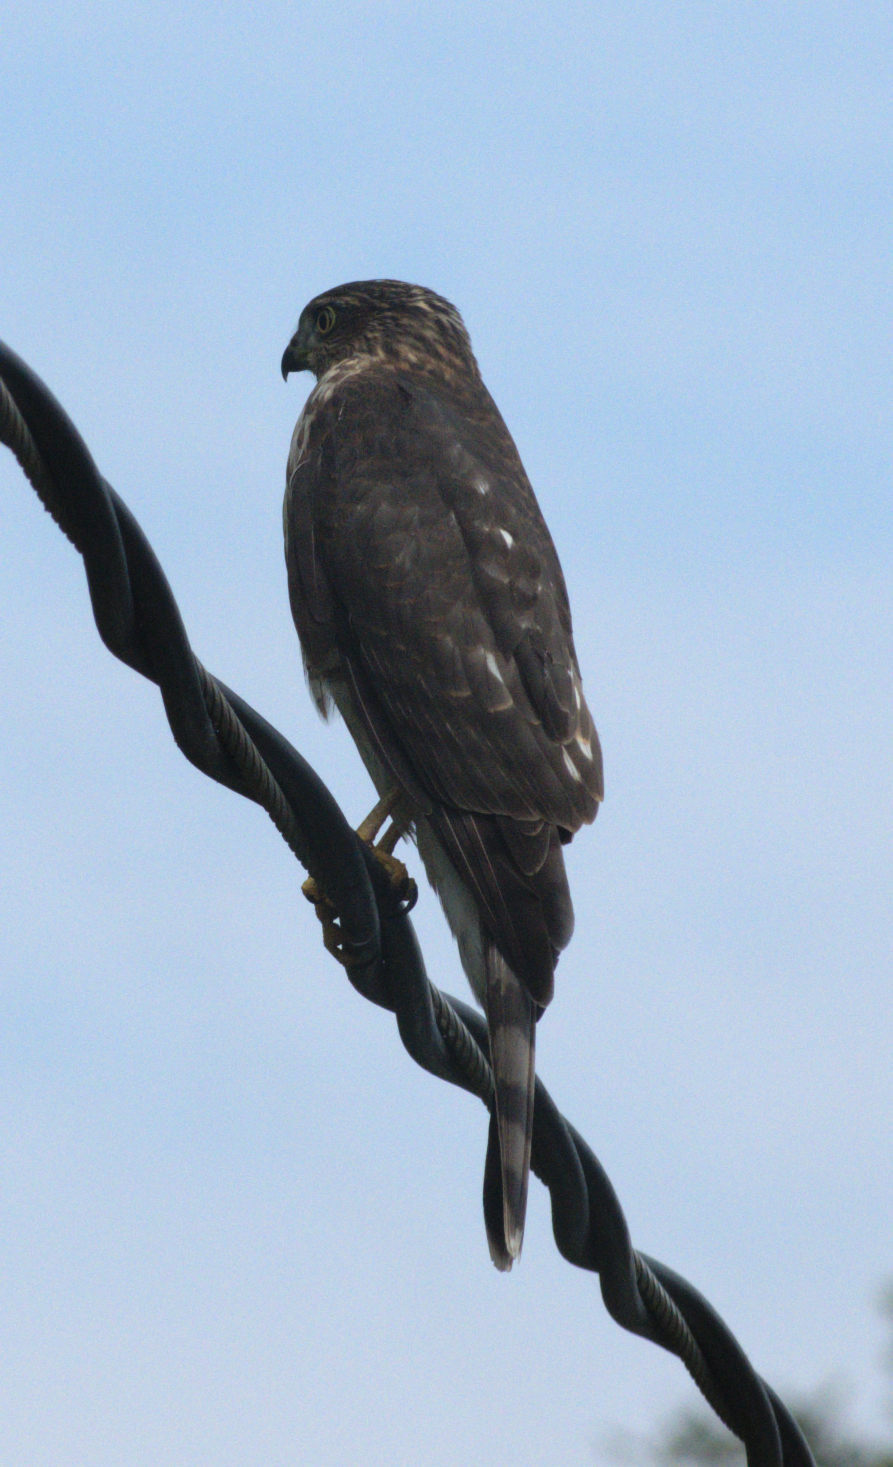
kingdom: Animalia
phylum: Chordata
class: Aves
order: Accipitriformes
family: Accipitridae
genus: Accipiter
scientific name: Accipiter striatus
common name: Sharp-shinned hawk
